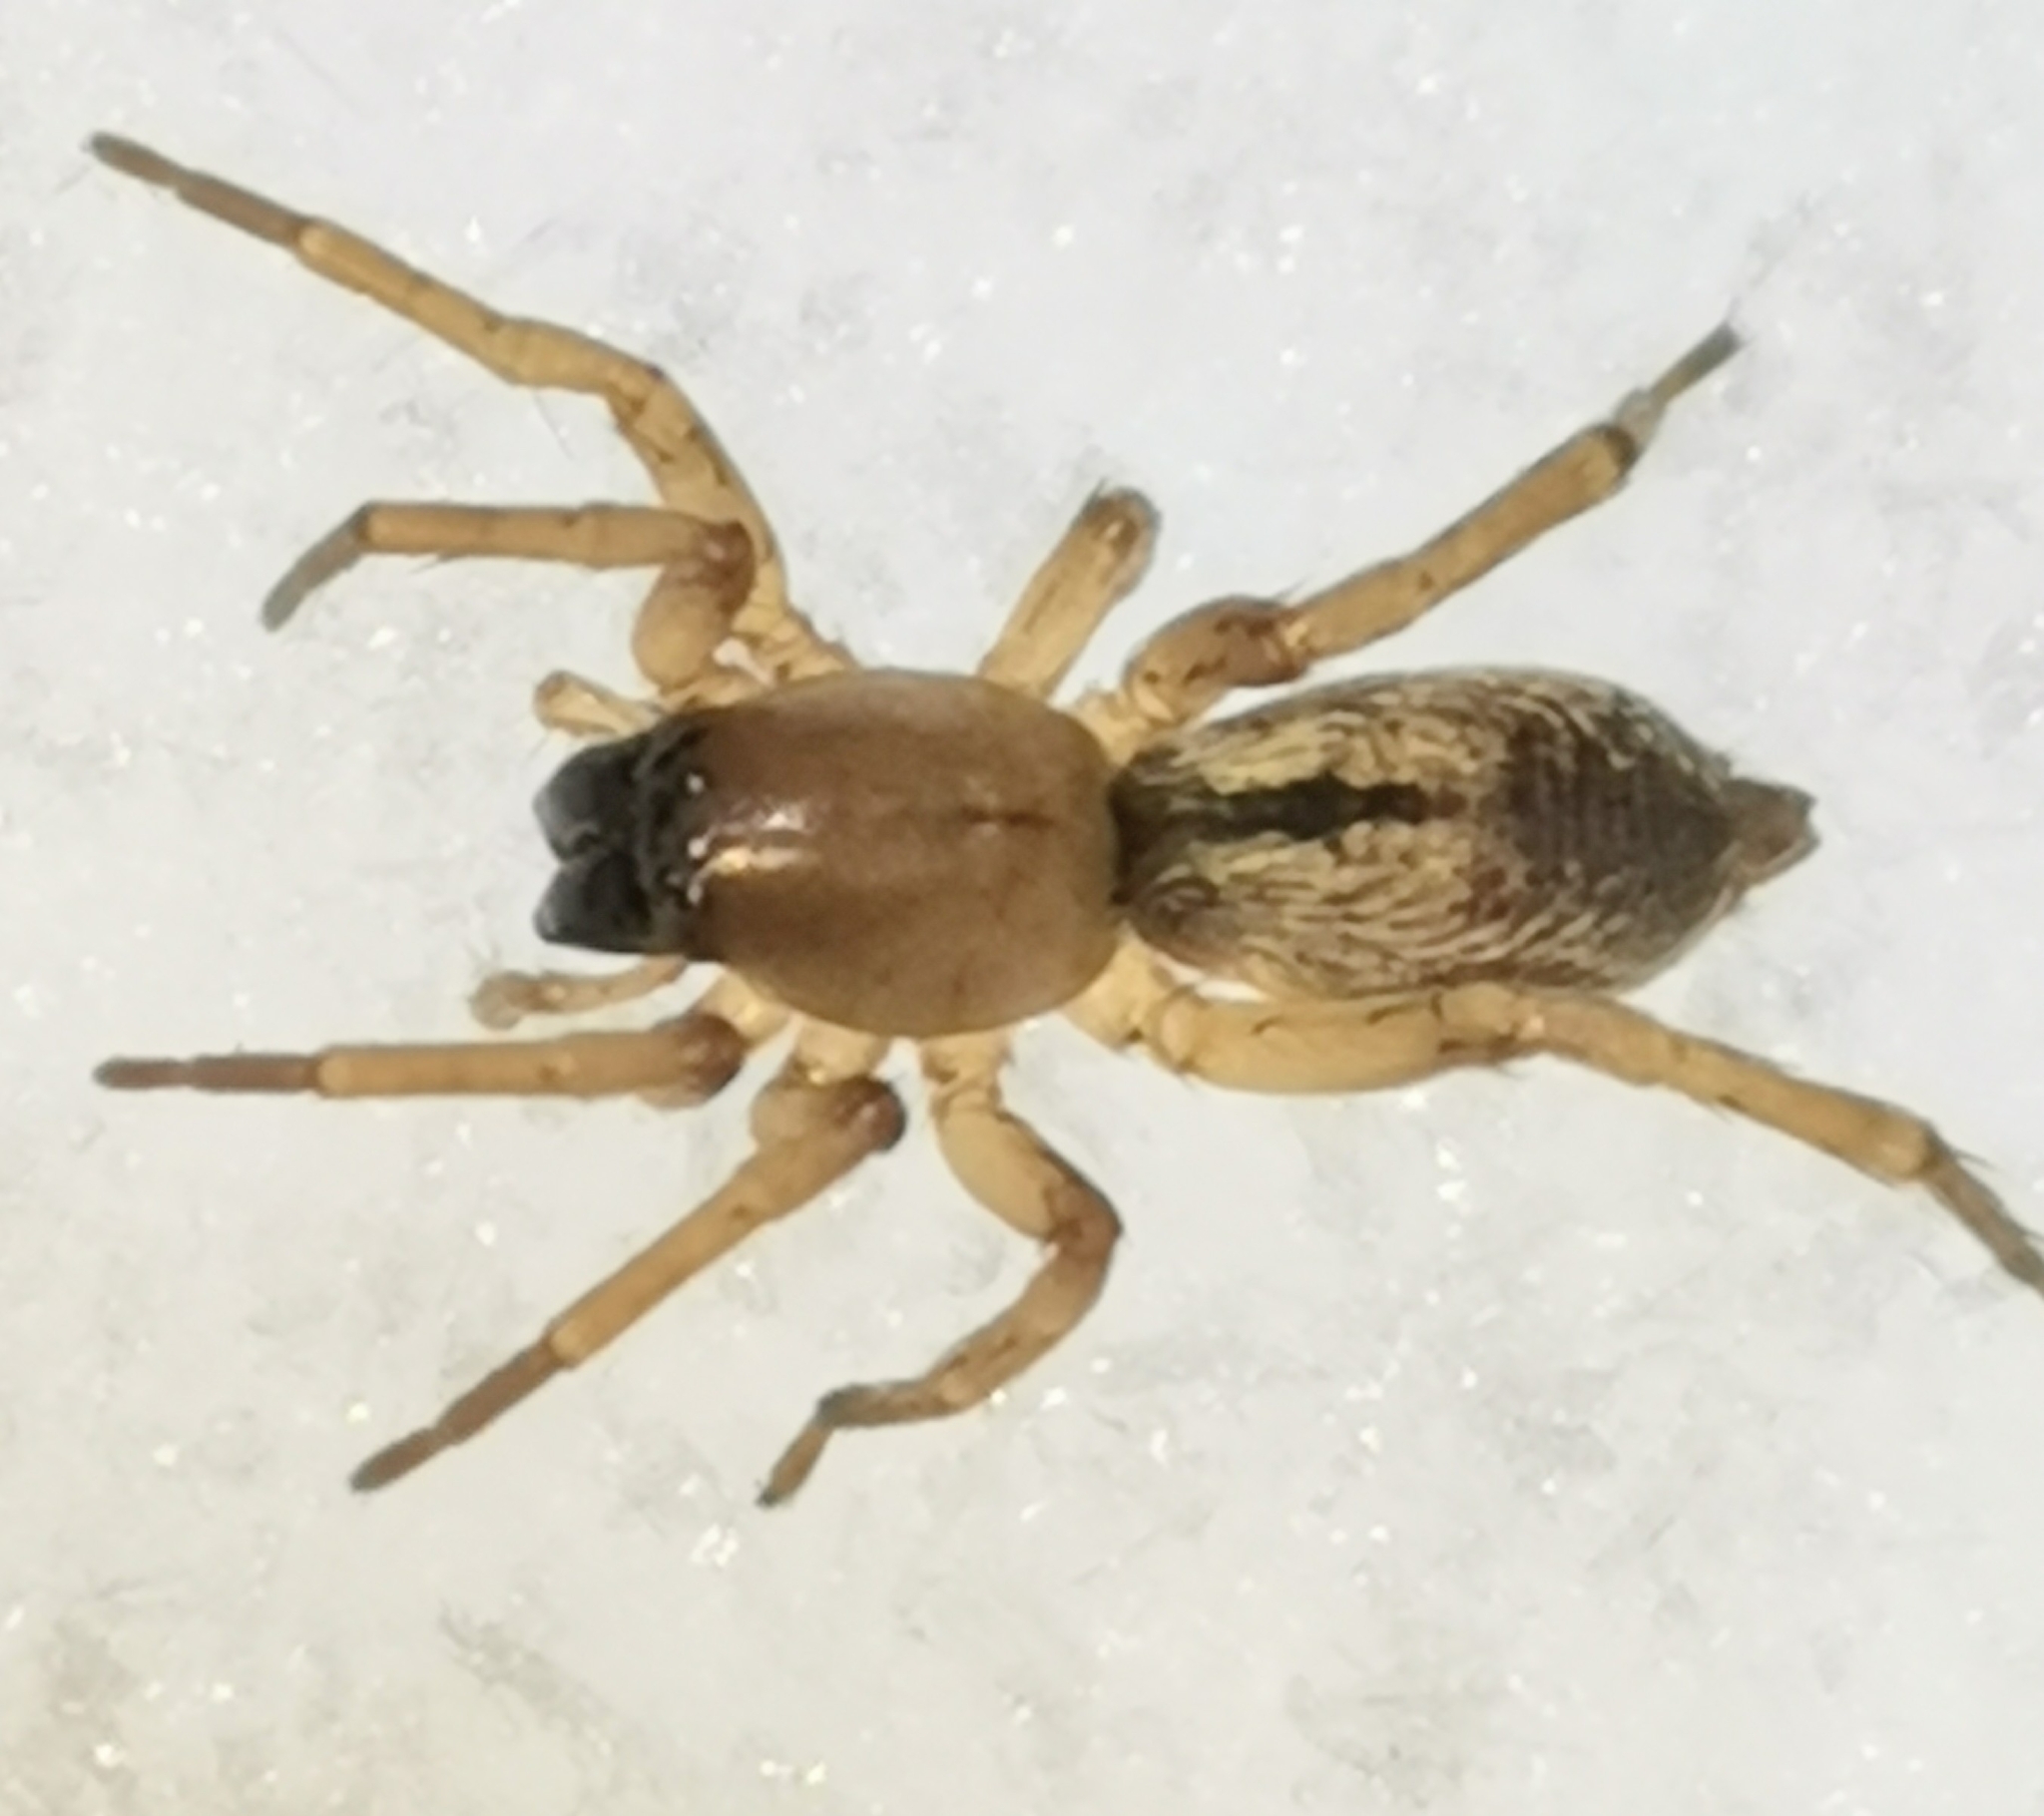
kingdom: Animalia
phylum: Arthropoda
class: Arachnida
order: Araneae
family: Clubionidae
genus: Clubiona
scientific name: Clubiona subsultans
